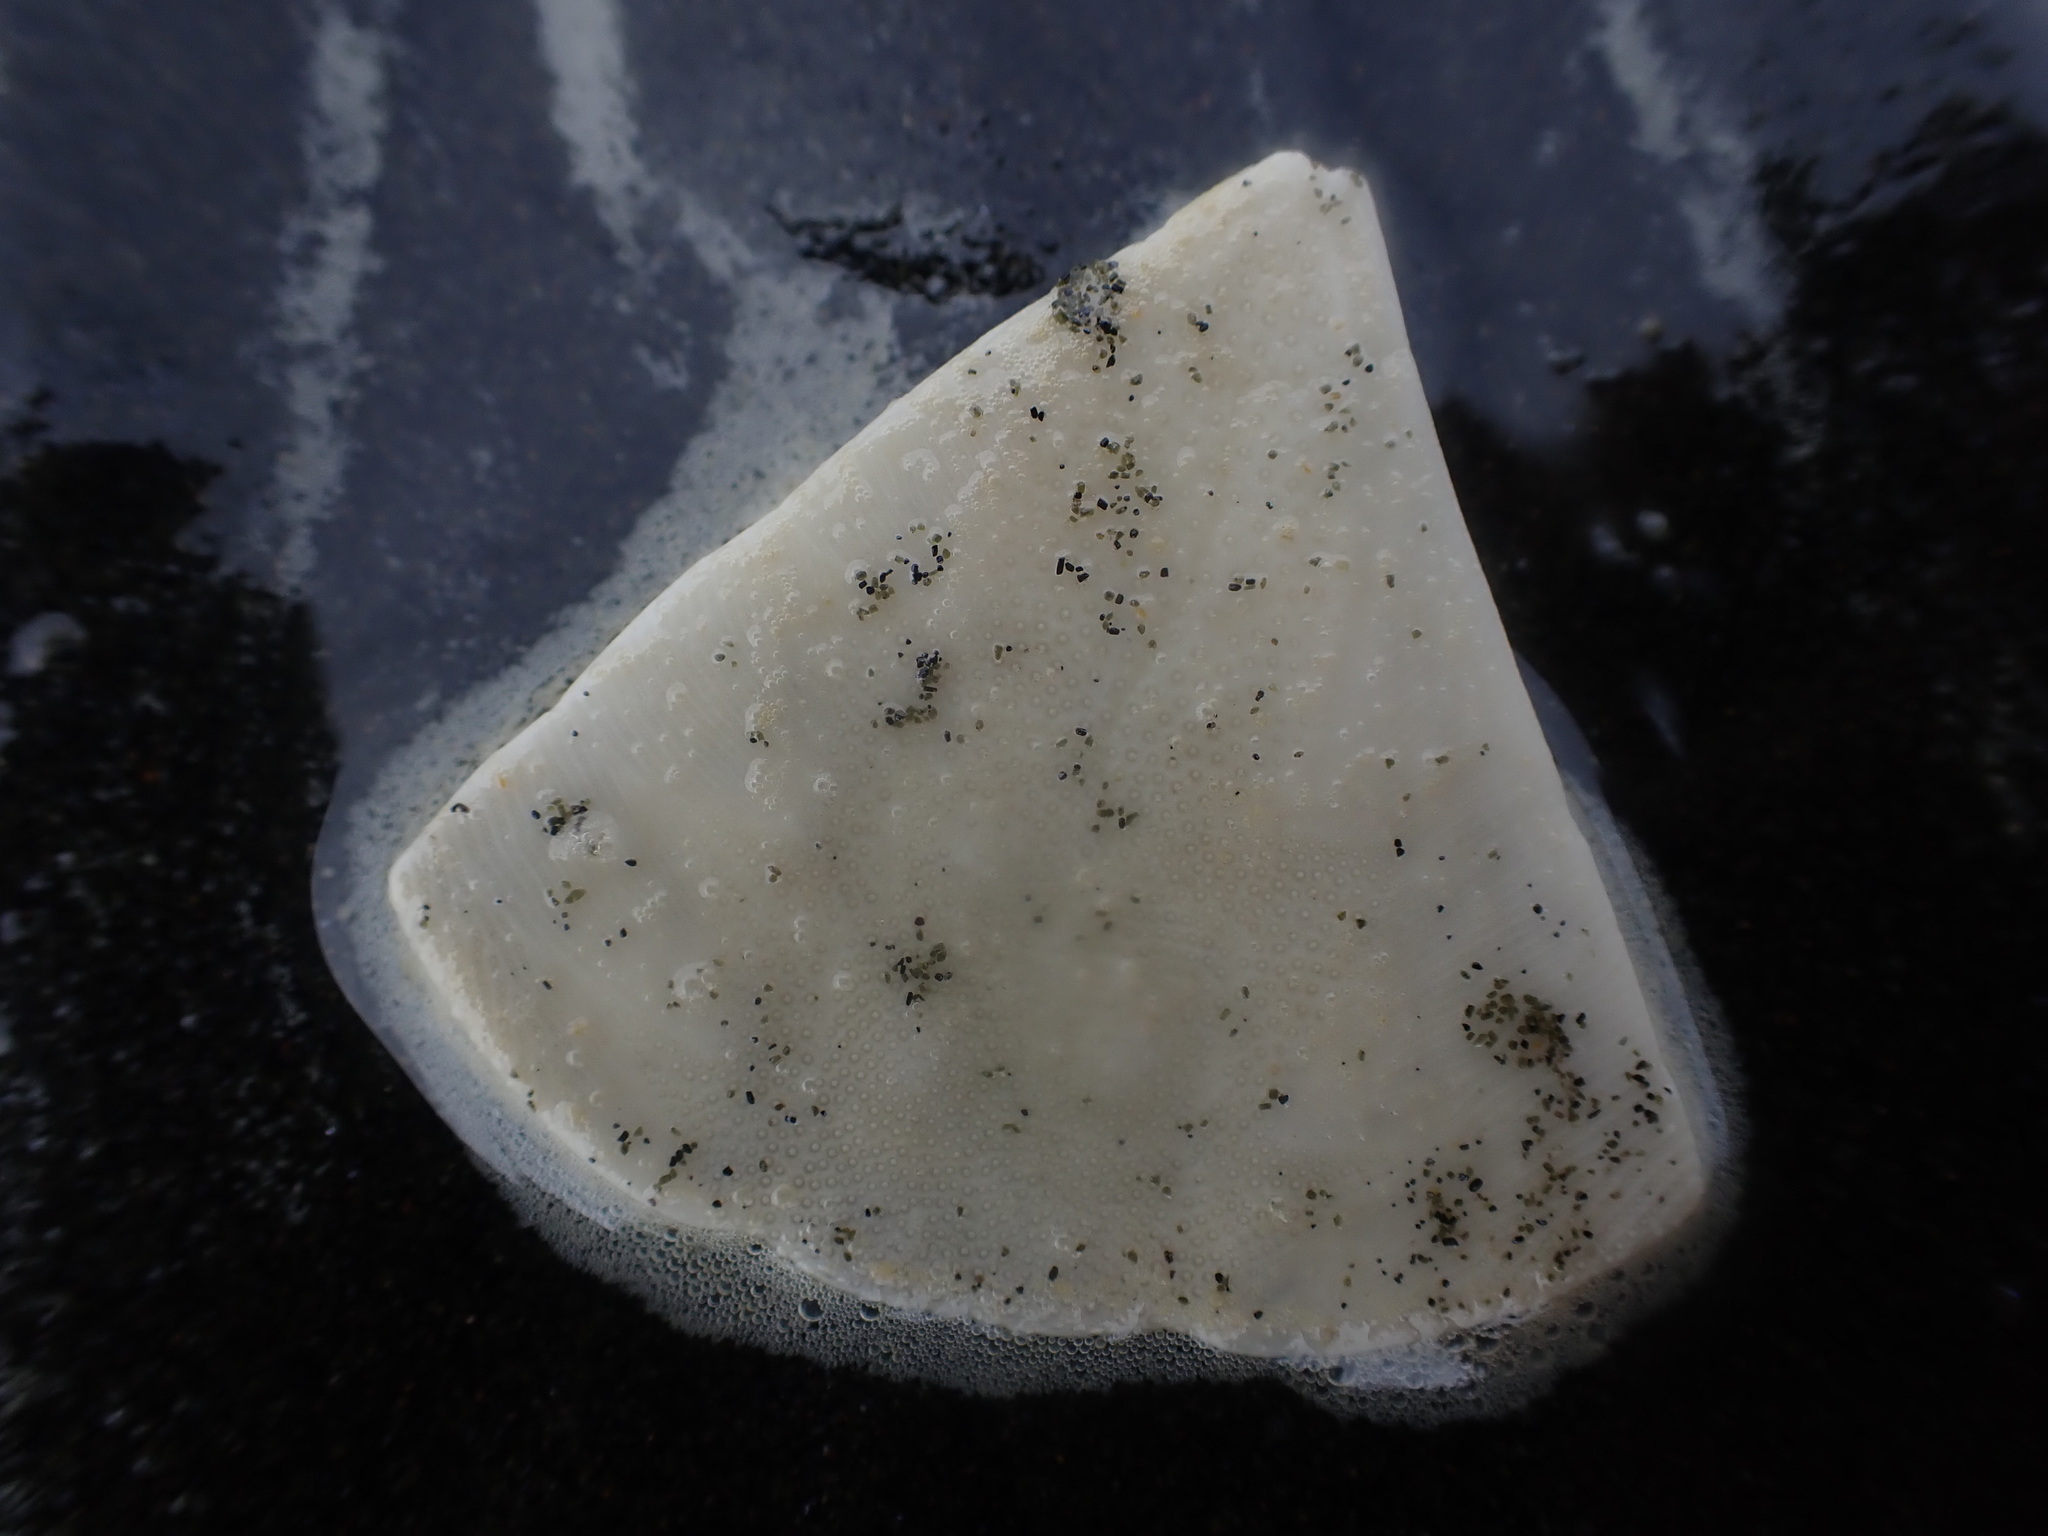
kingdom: Animalia
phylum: Echinodermata
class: Echinoidea
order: Clypeasteroida
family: Clypeasteridae
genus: Fellaster
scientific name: Fellaster zelandiae
